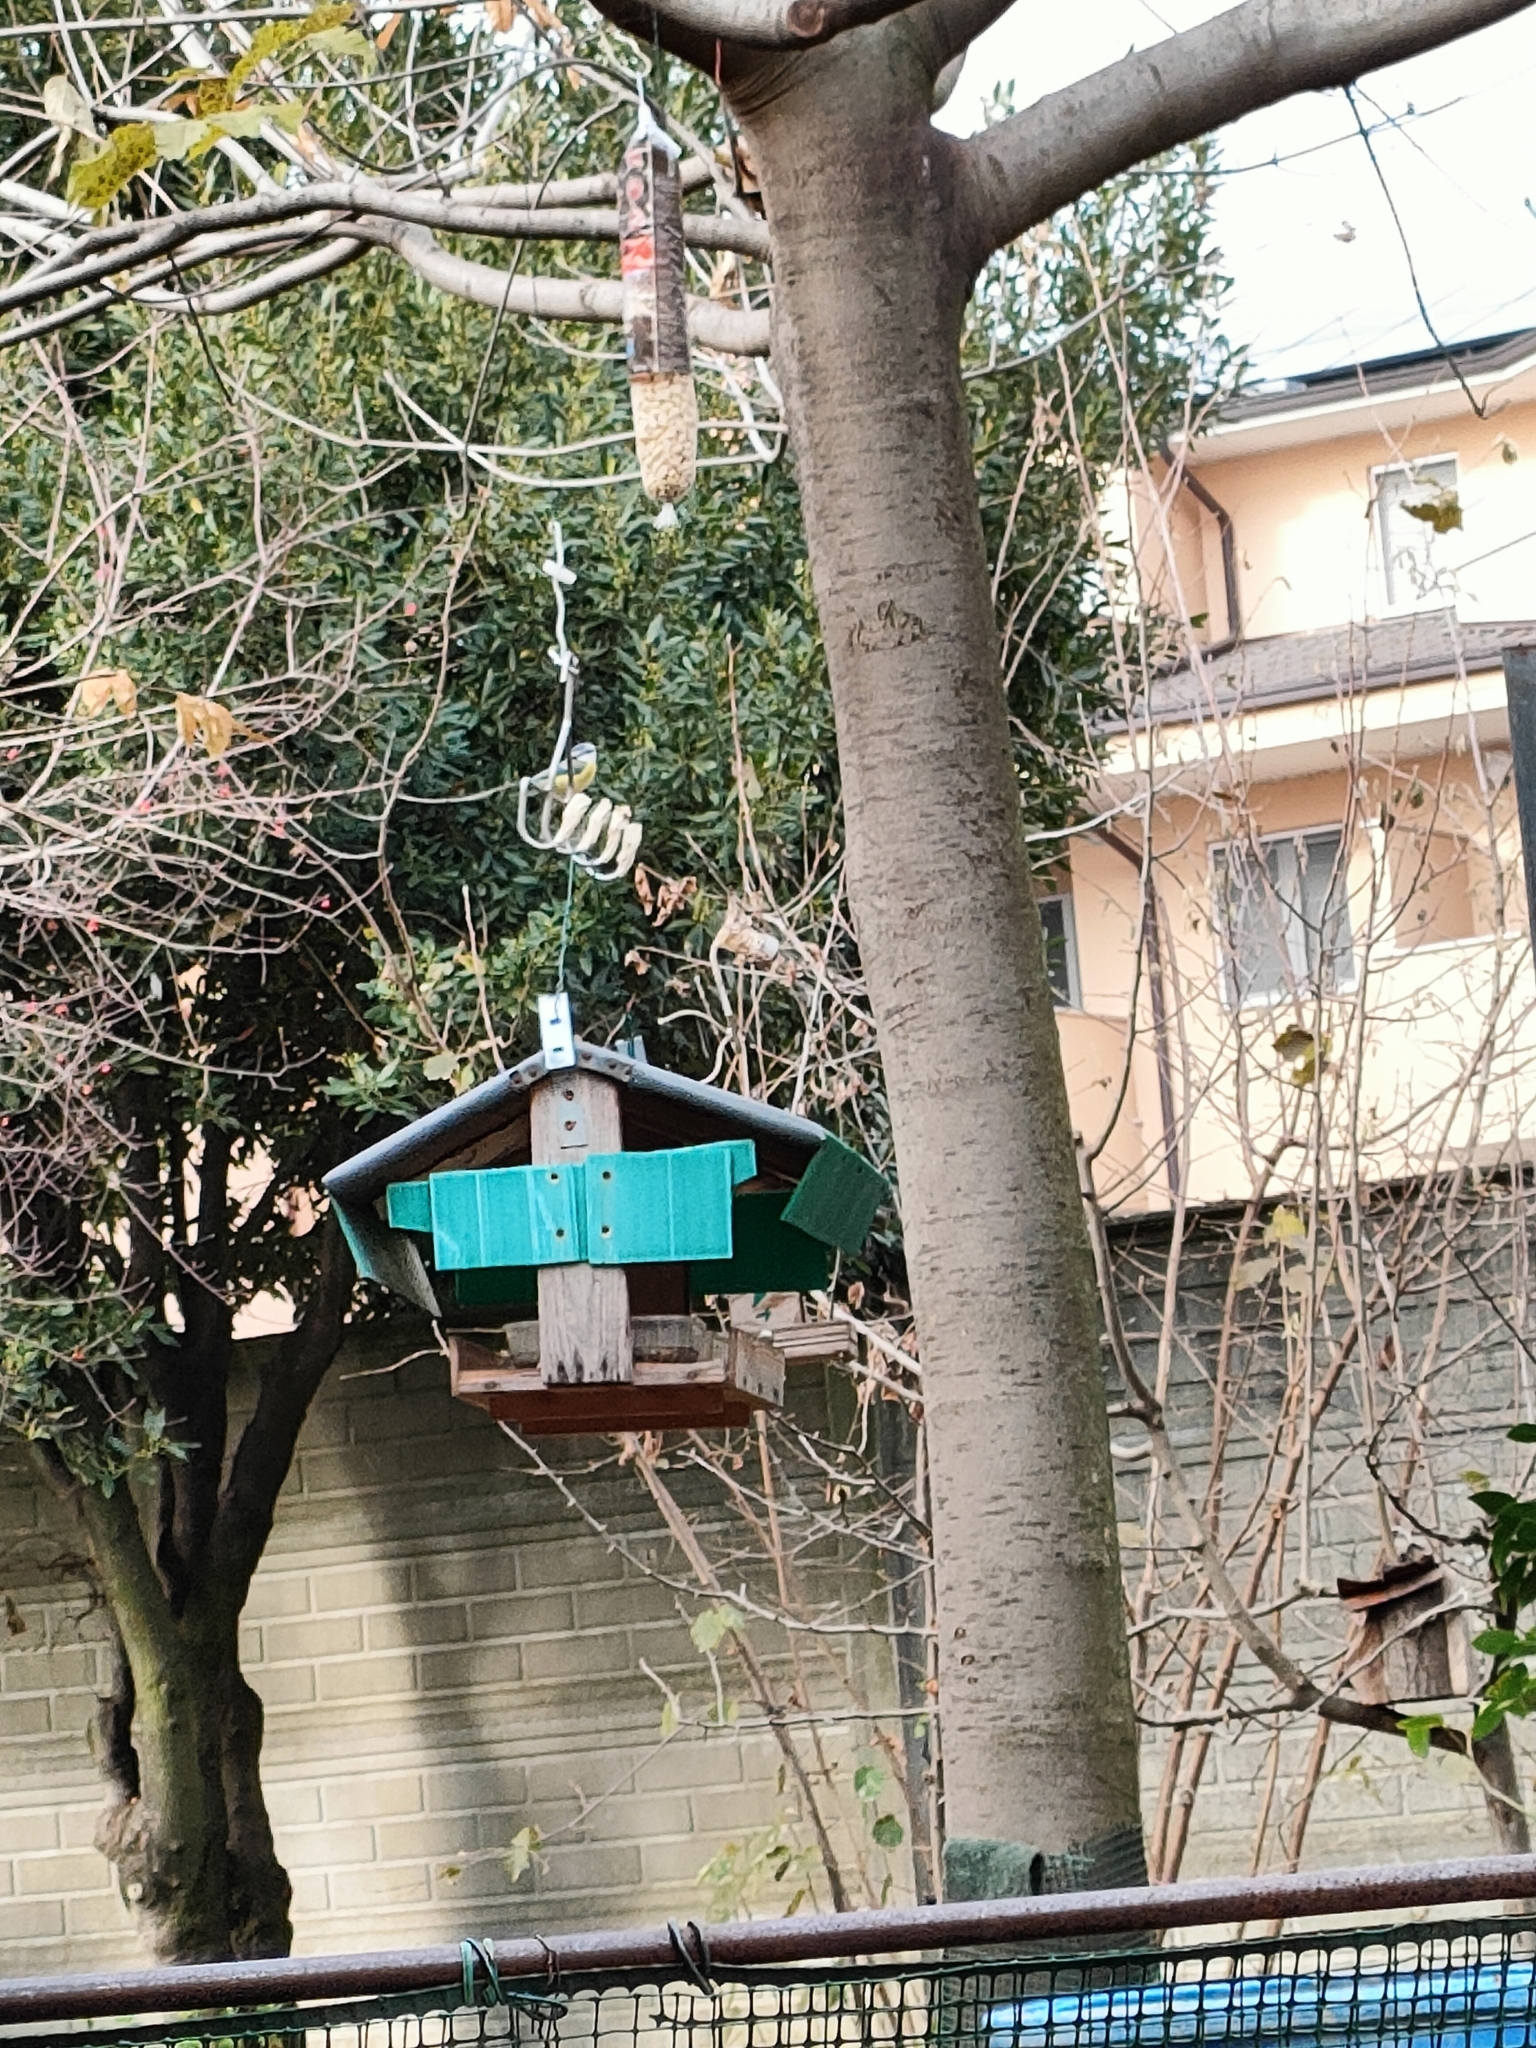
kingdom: Animalia
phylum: Chordata
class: Aves
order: Passeriformes
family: Paridae
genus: Cyanistes
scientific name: Cyanistes caeruleus
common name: Eurasian blue tit
